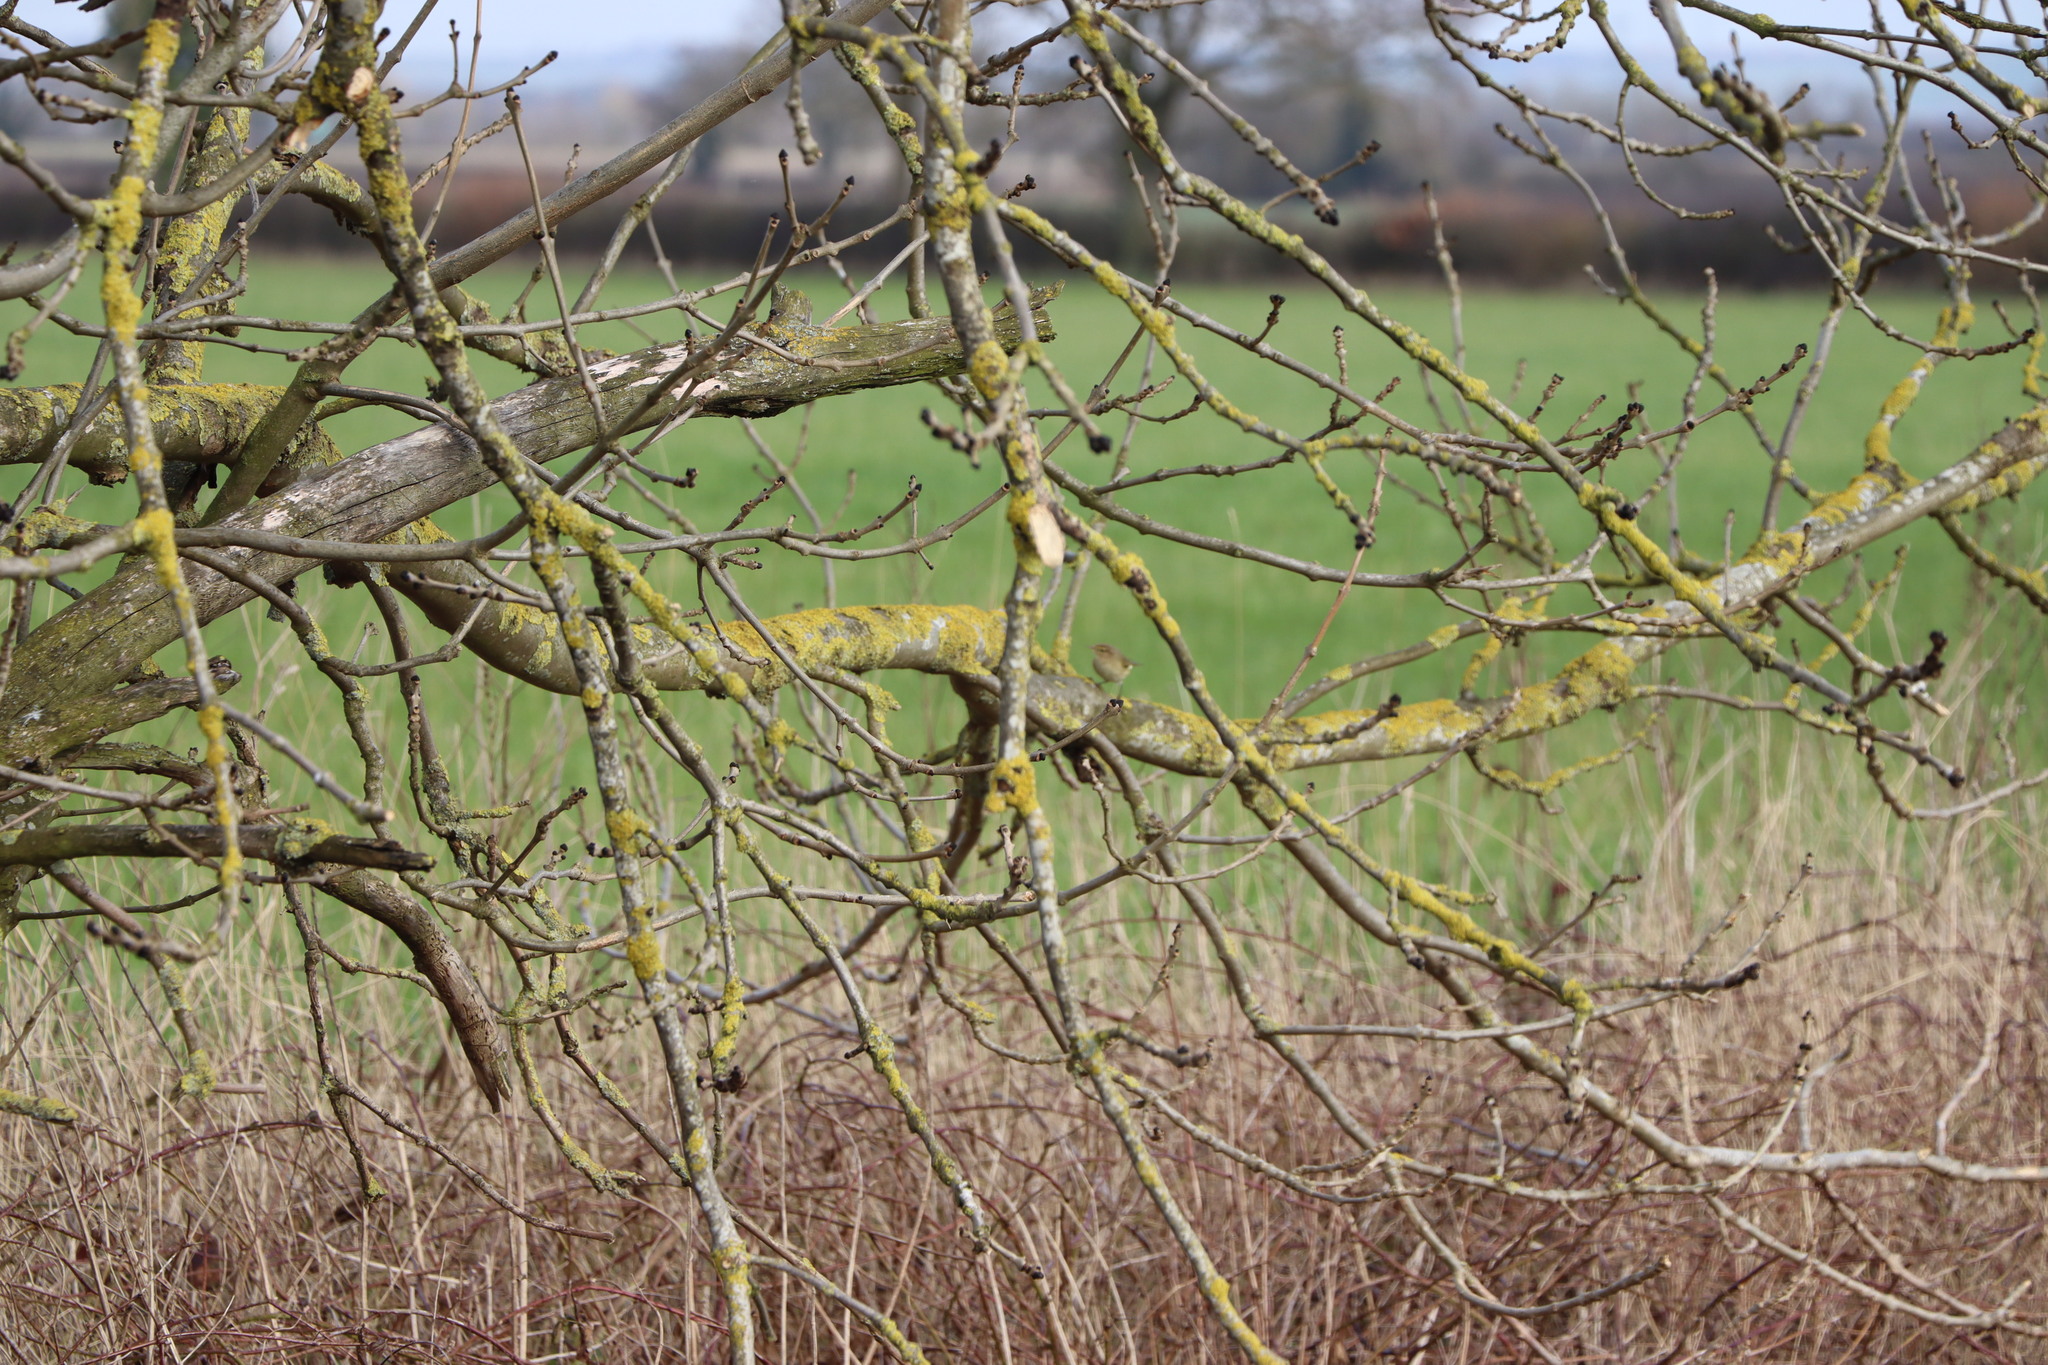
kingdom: Animalia
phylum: Chordata
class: Aves
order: Passeriformes
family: Phylloscopidae
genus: Phylloscopus
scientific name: Phylloscopus collybita
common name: Common chiffchaff
